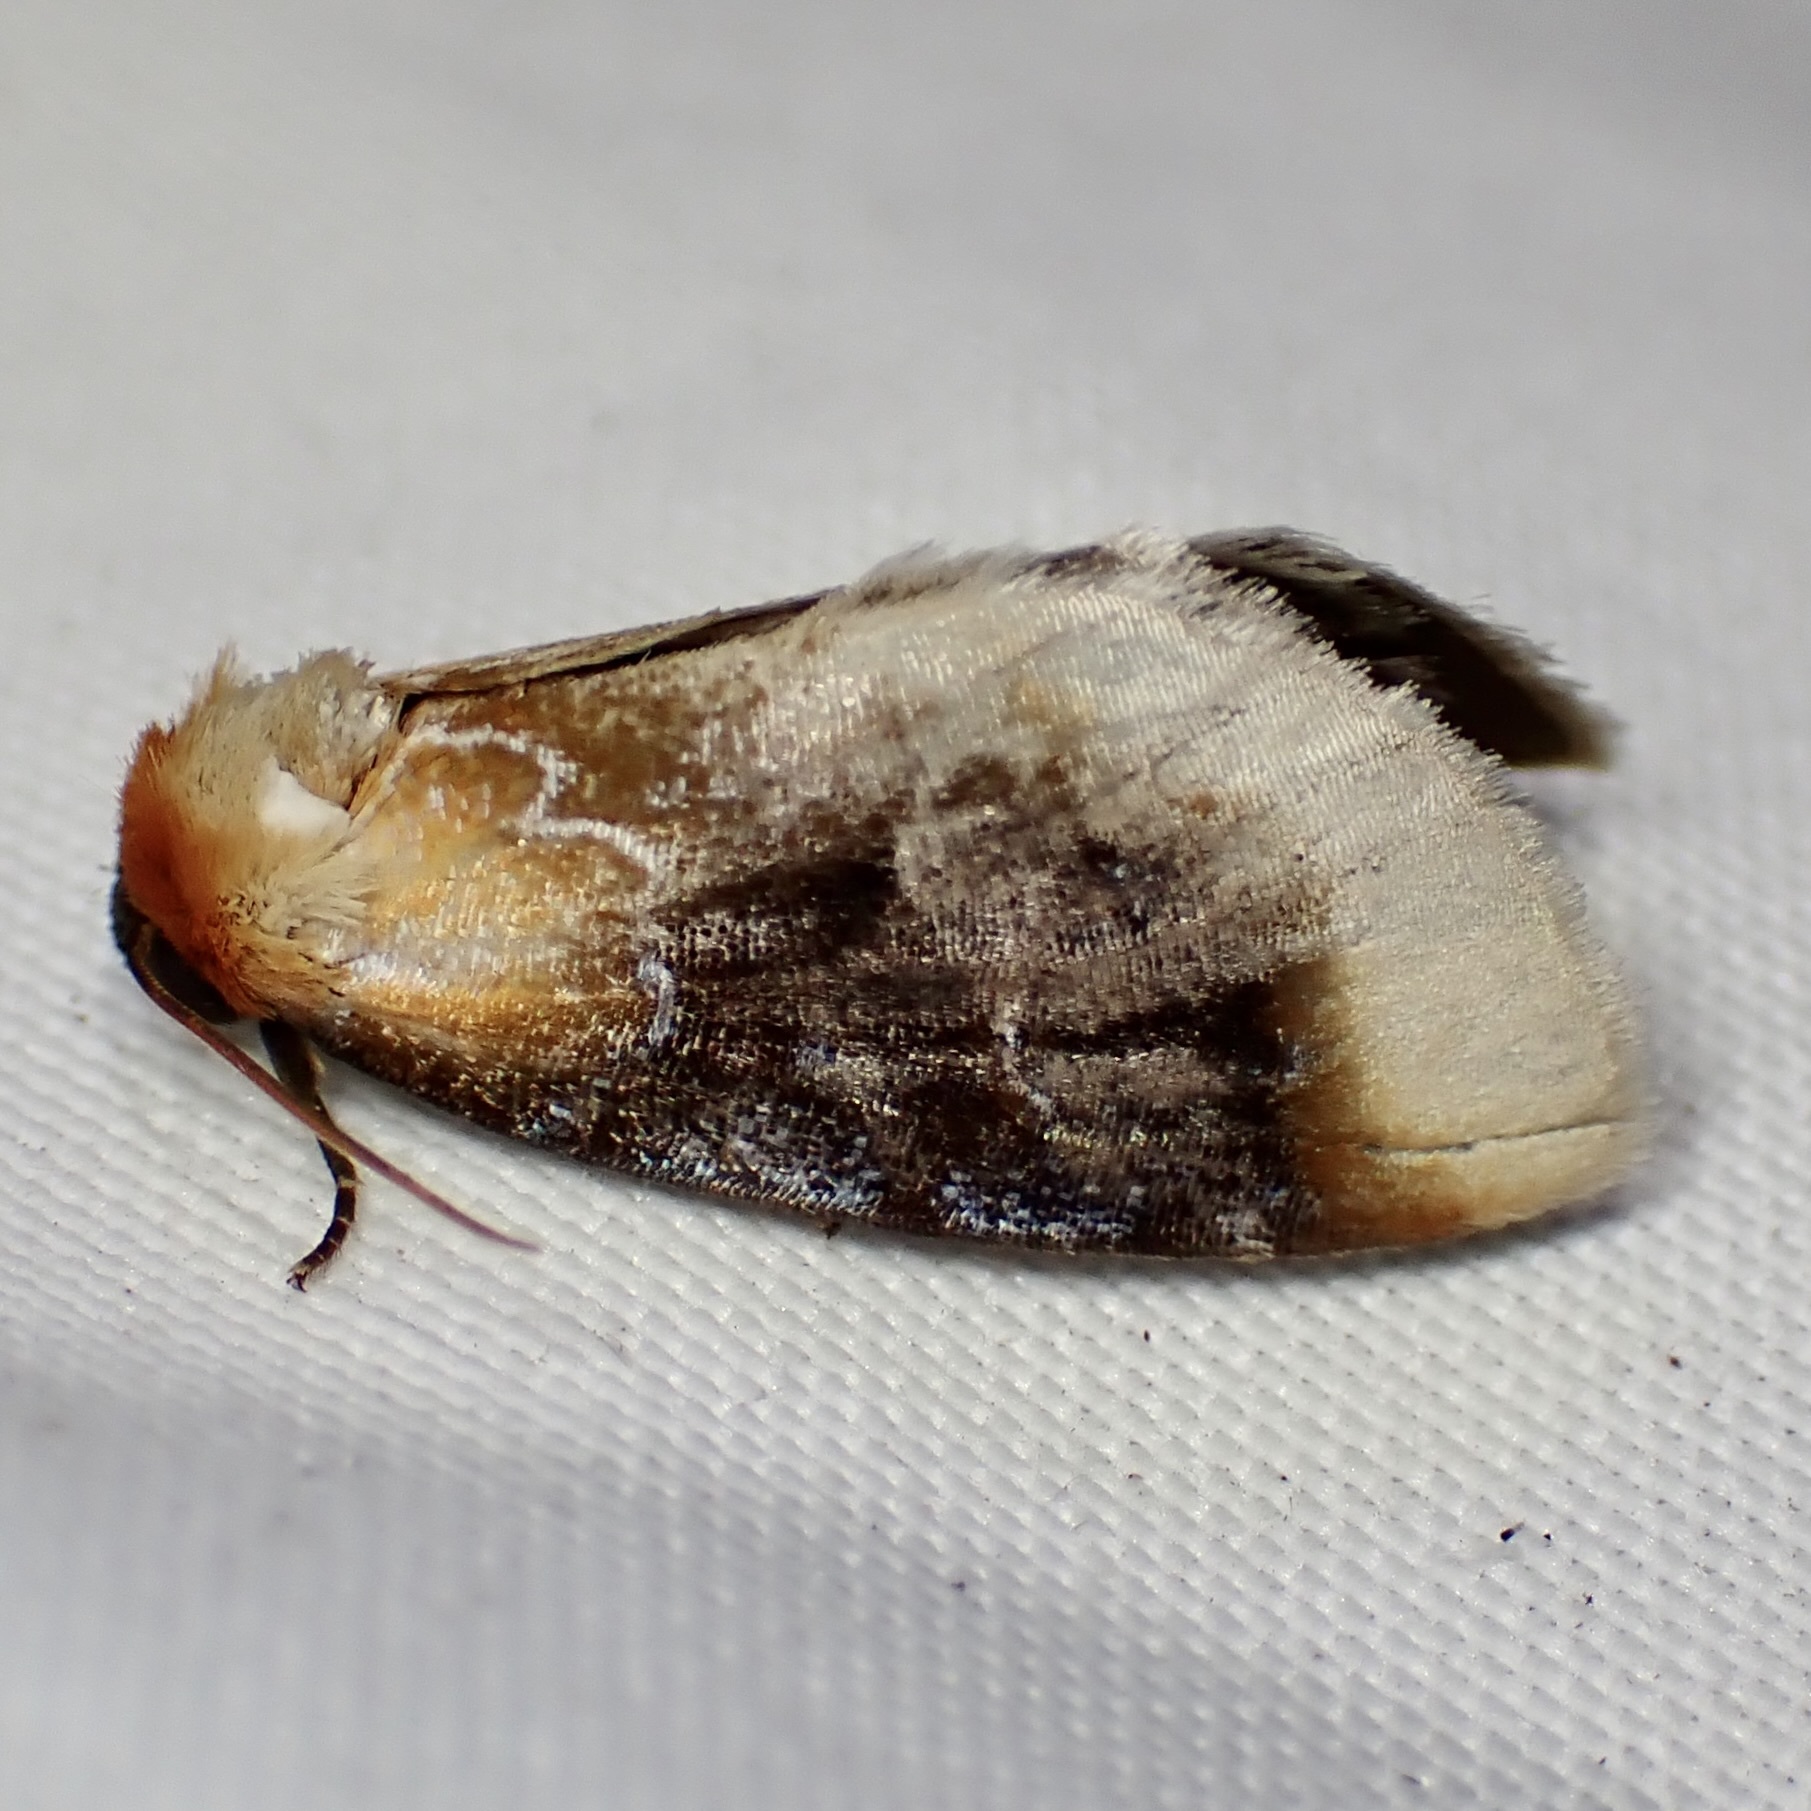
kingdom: Animalia
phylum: Arthropoda
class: Insecta
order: Lepidoptera
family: Noctuidae
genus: Chrysoecia
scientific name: Chrysoecia scira
